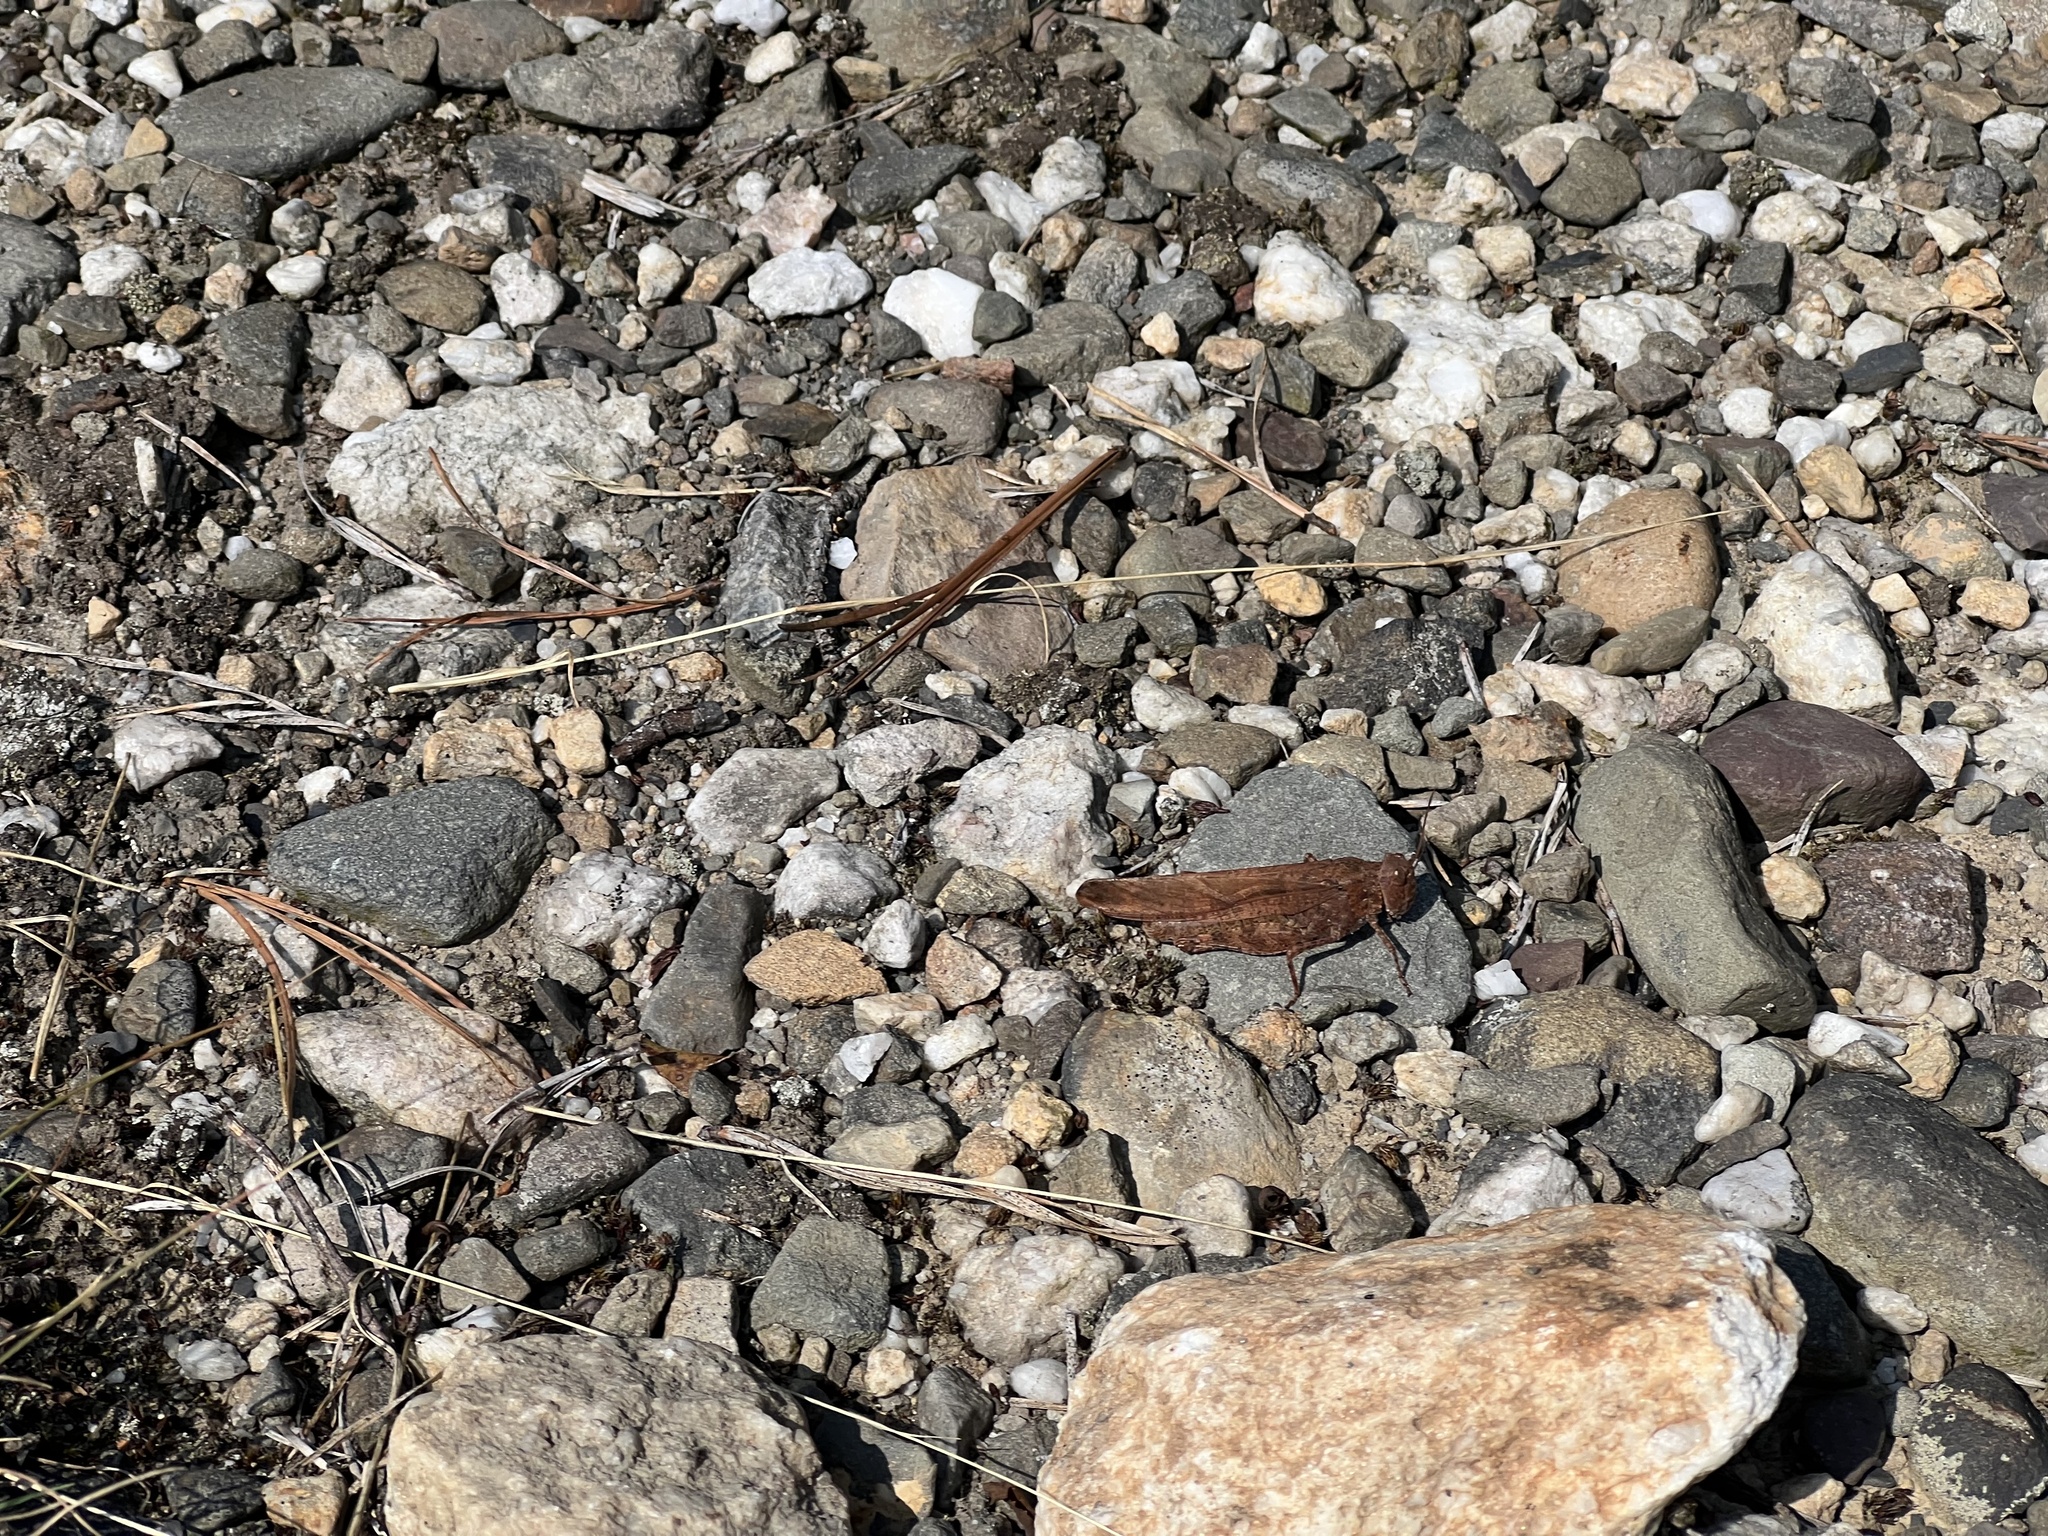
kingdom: Animalia
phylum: Arthropoda
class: Insecta
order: Orthoptera
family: Acrididae
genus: Dissosteira
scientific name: Dissosteira carolina
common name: Carolina grasshopper
